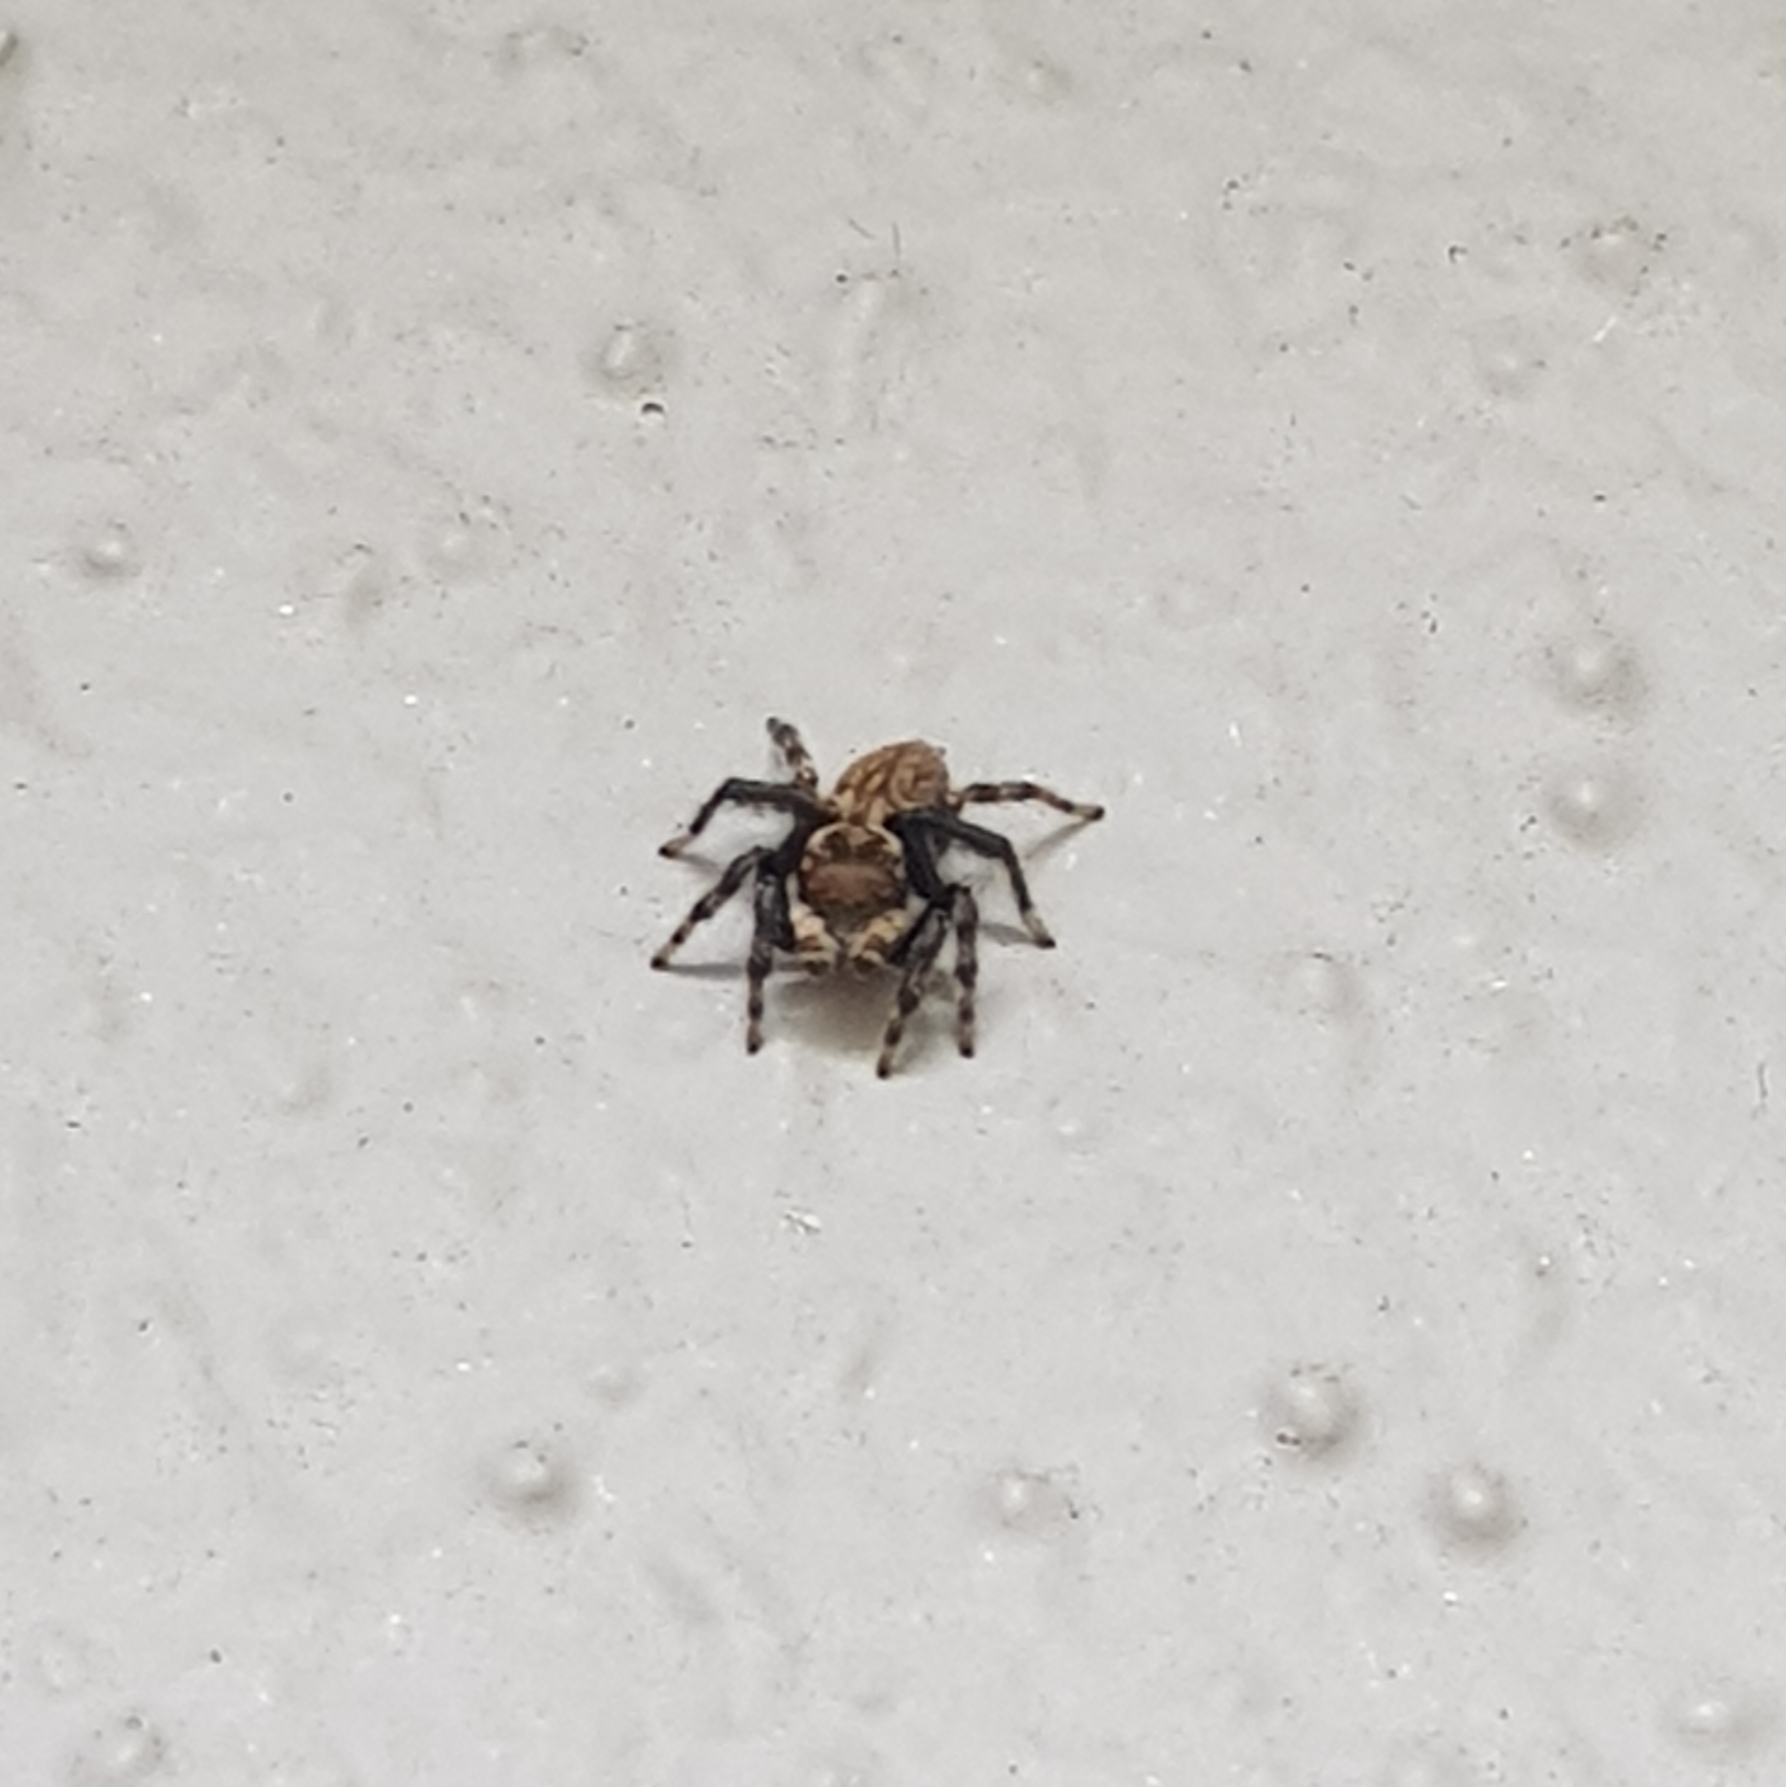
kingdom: Animalia
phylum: Arthropoda
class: Arachnida
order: Araneae
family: Salticidae
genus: Maratus
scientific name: Maratus griseus
